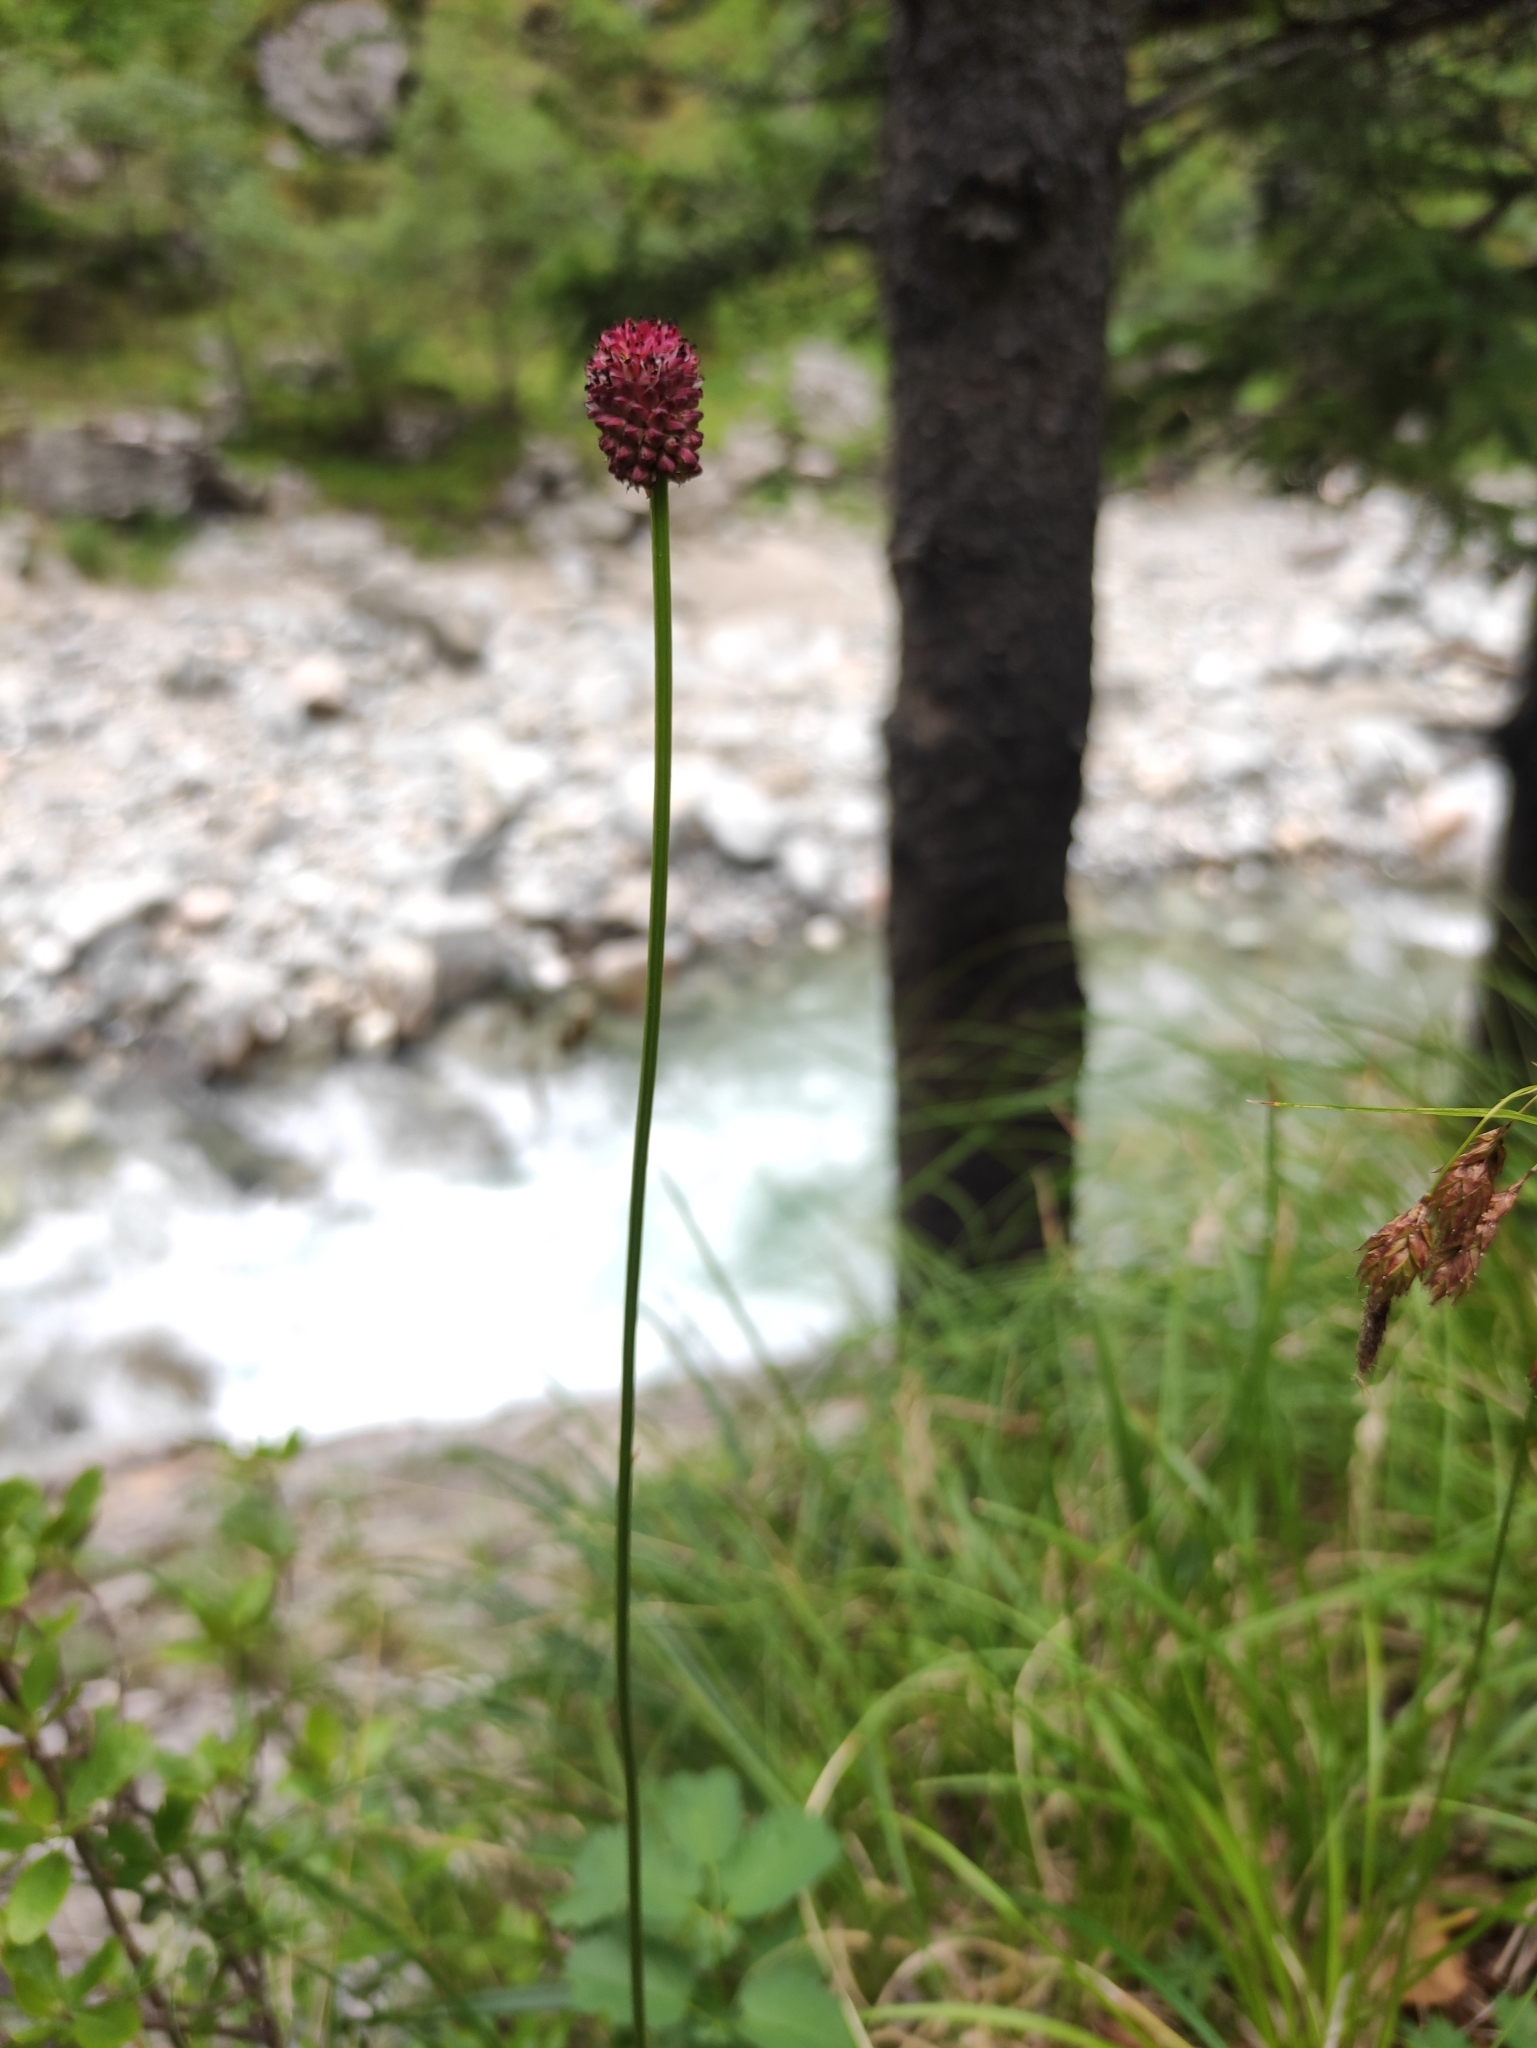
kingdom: Plantae
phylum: Tracheophyta
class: Magnoliopsida
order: Rosales
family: Rosaceae
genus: Sanguisorba
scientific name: Sanguisorba officinalis
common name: Great burnet
